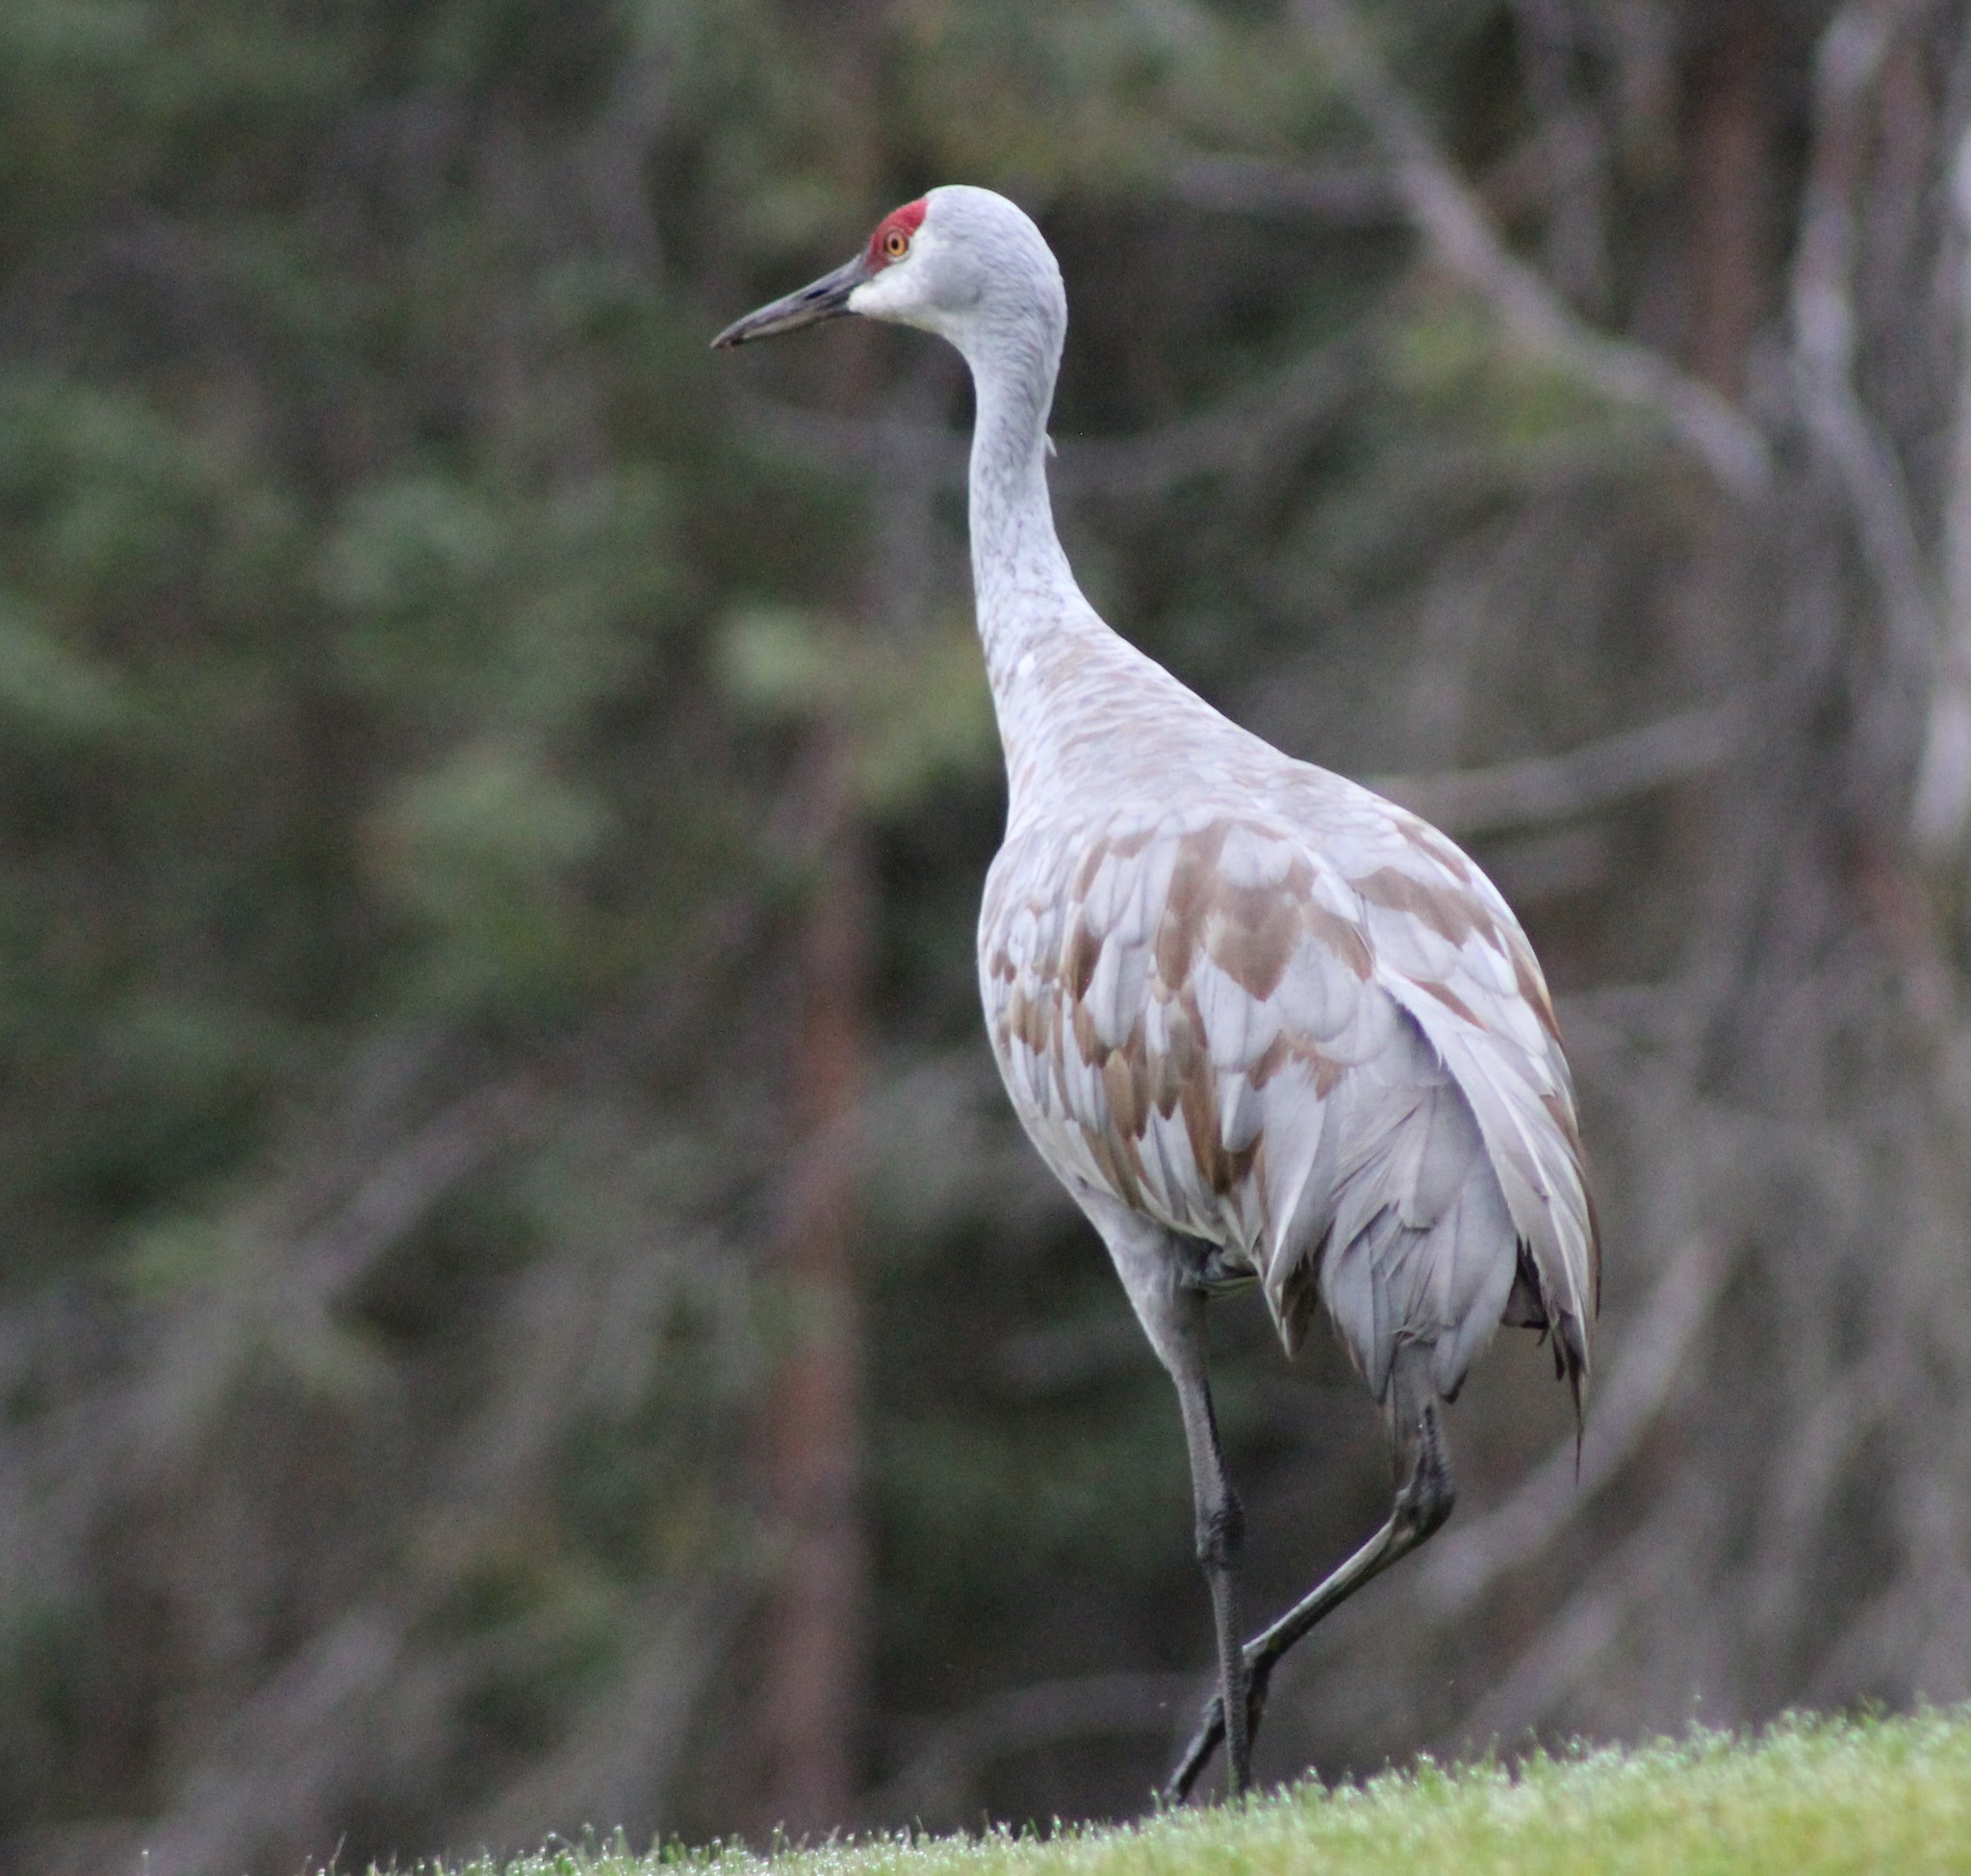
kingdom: Animalia
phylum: Chordata
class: Aves
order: Gruiformes
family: Gruidae
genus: Grus
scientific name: Grus canadensis
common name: Sandhill crane
